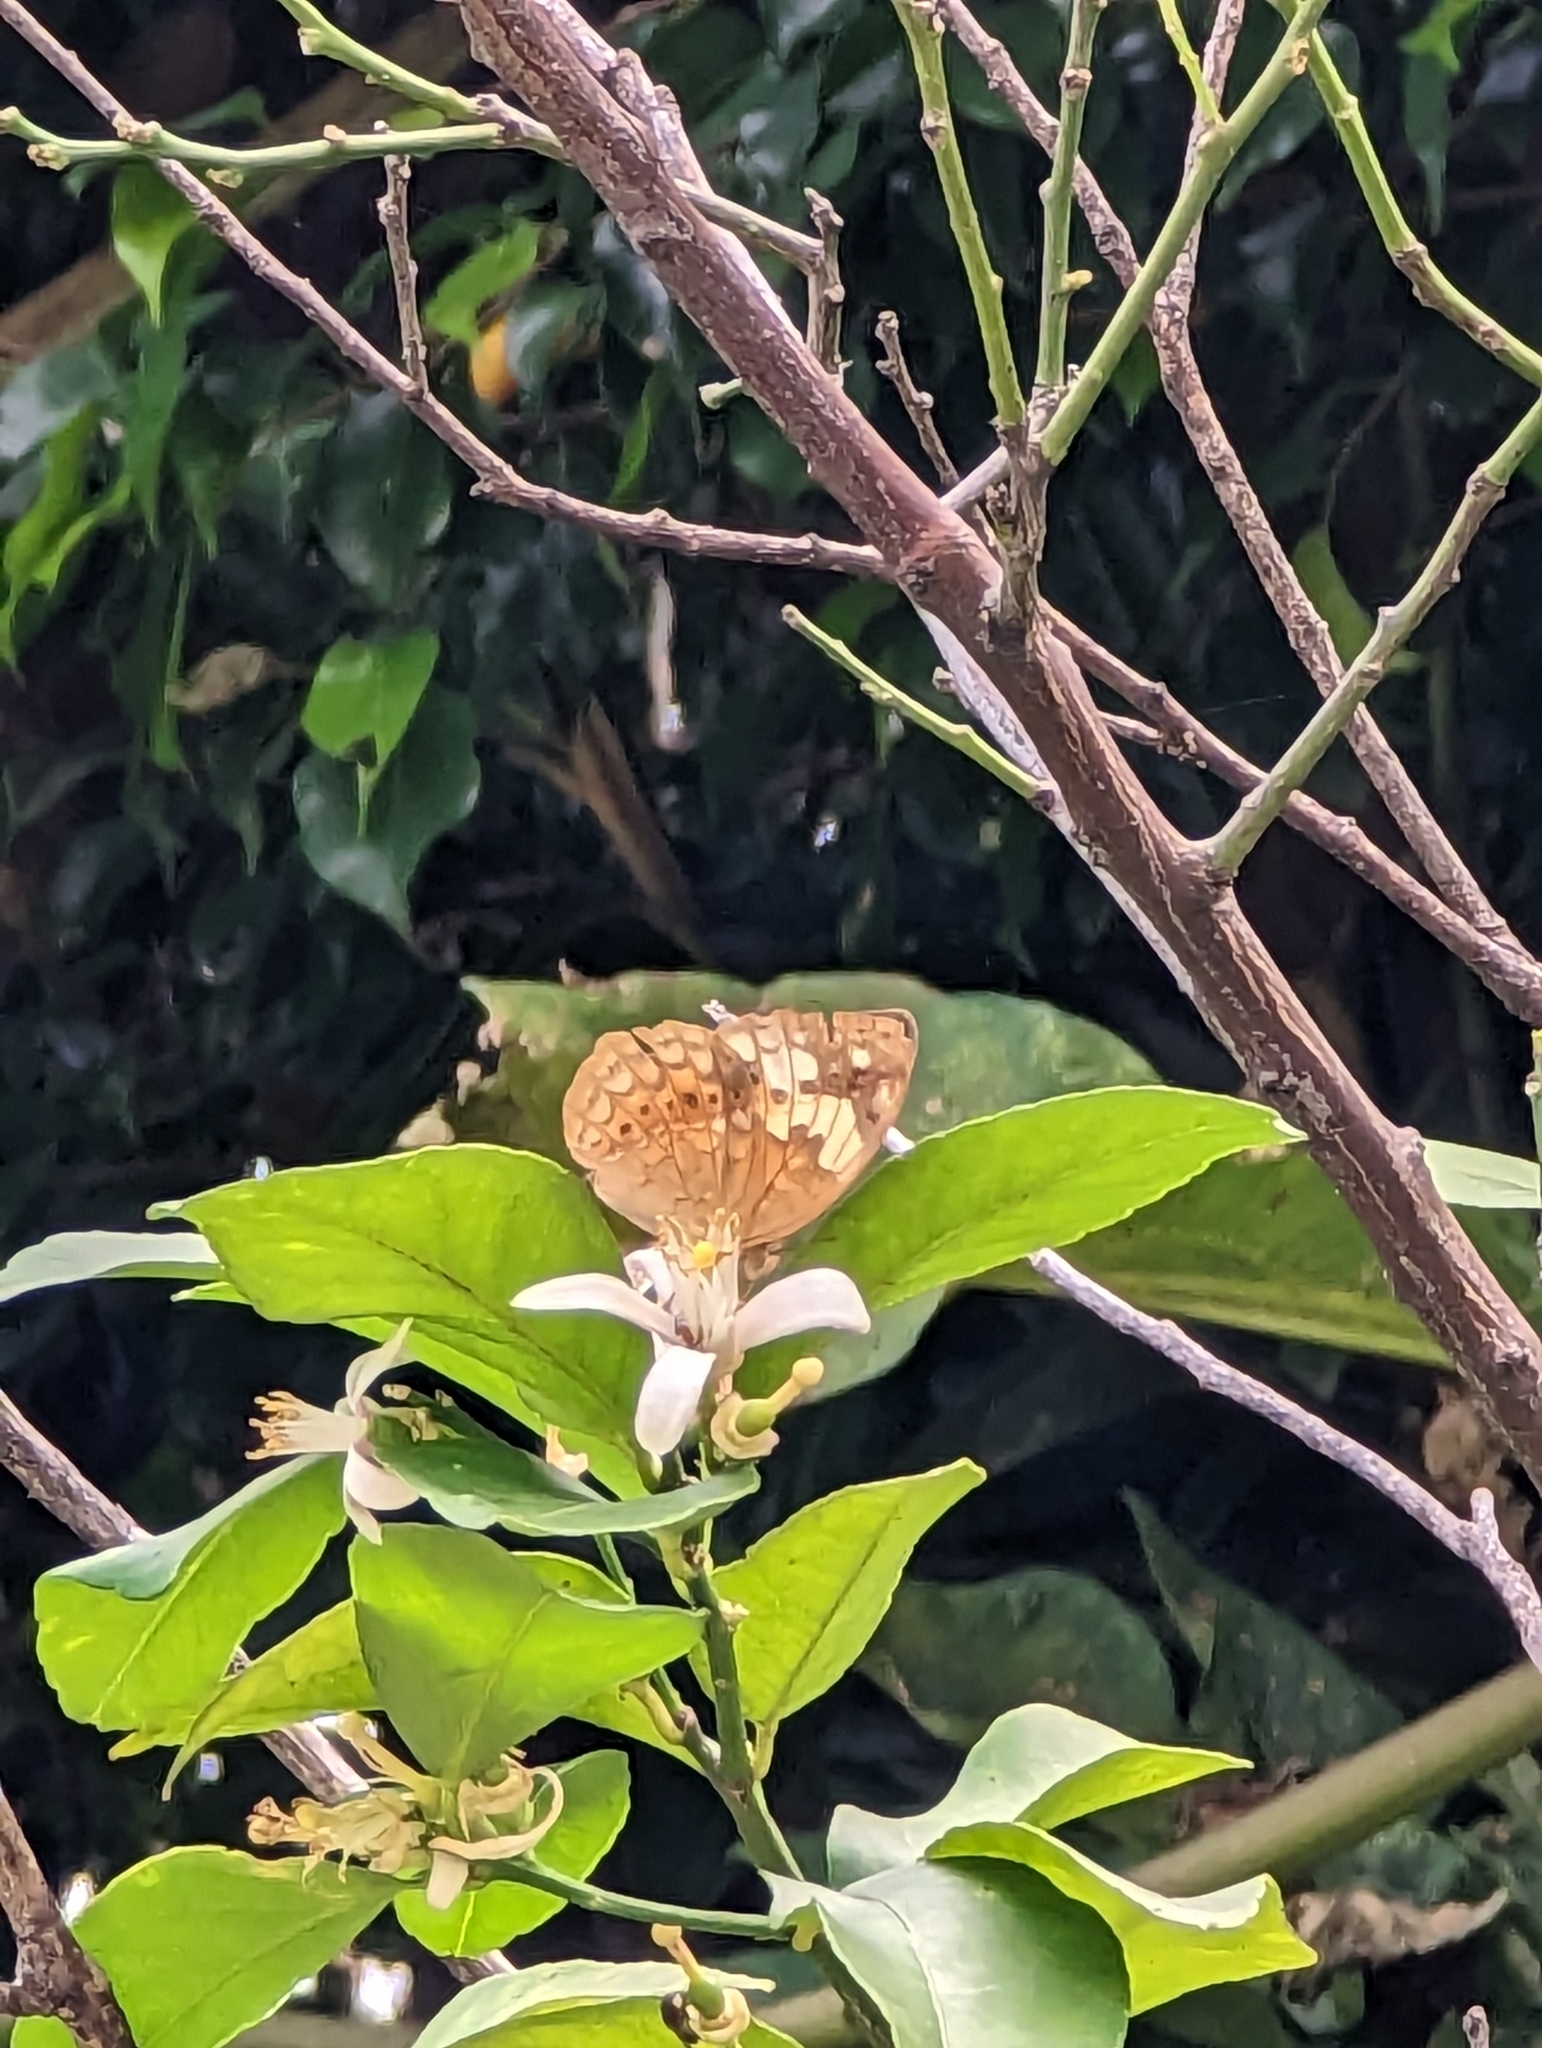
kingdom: Animalia
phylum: Arthropoda
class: Insecta
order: Lepidoptera
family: Nymphalidae
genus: Cupha
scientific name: Cupha erymanthis
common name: Rustic
